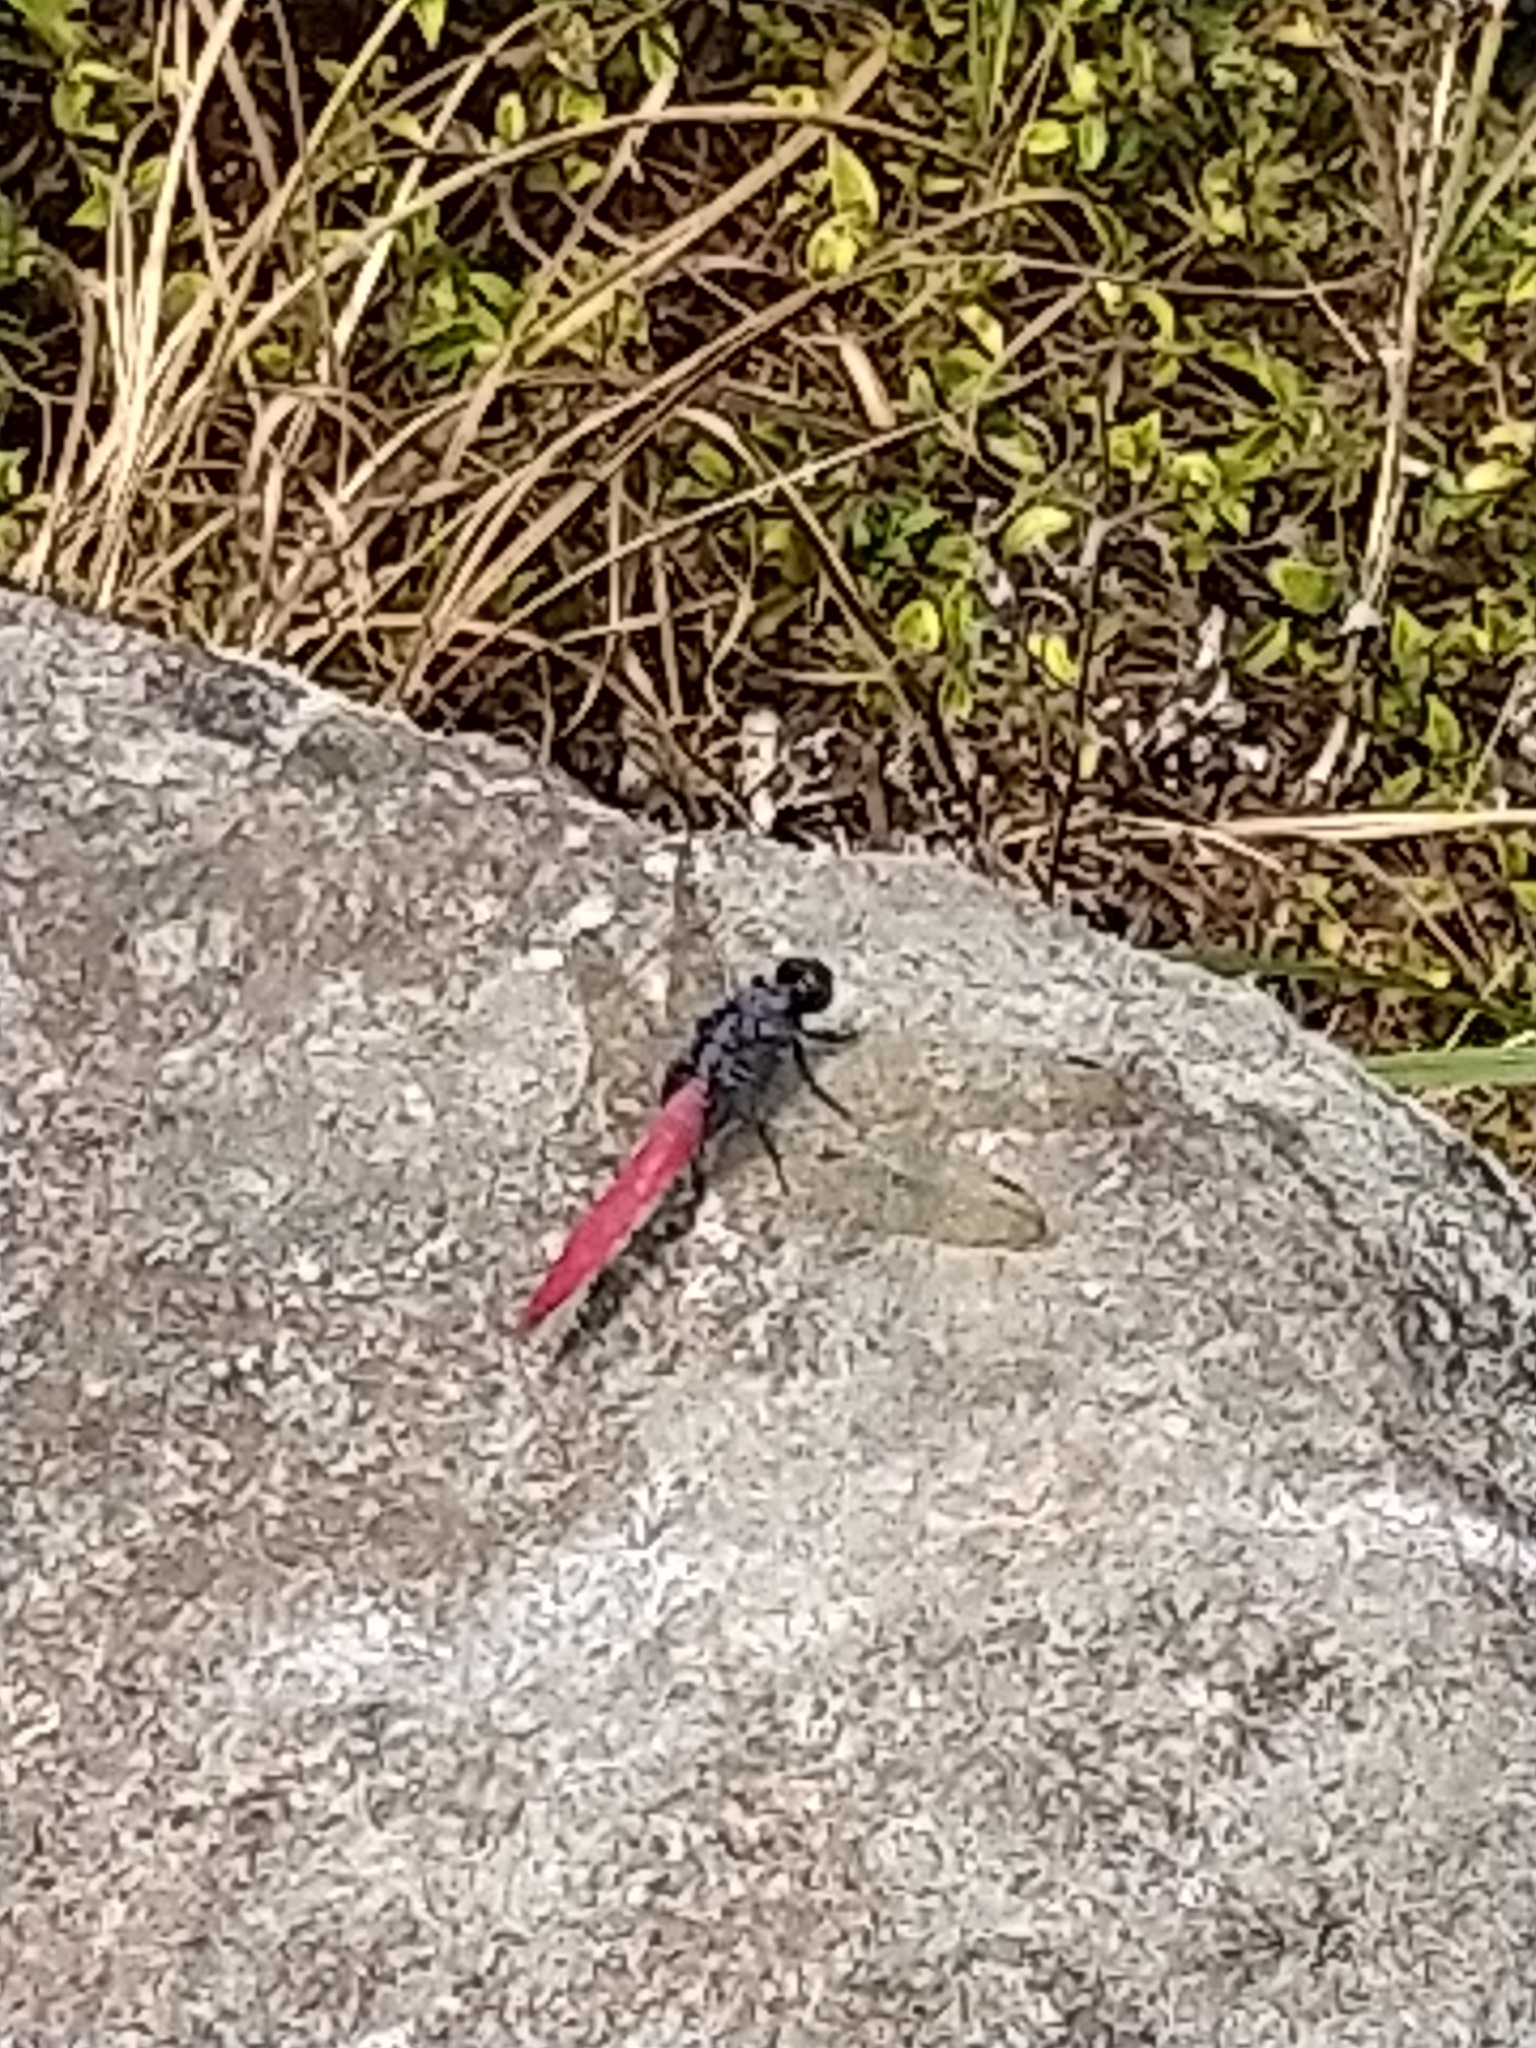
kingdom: Animalia
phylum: Arthropoda
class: Insecta
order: Odonata
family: Libellulidae
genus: Orthetrum
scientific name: Orthetrum pruinosum
